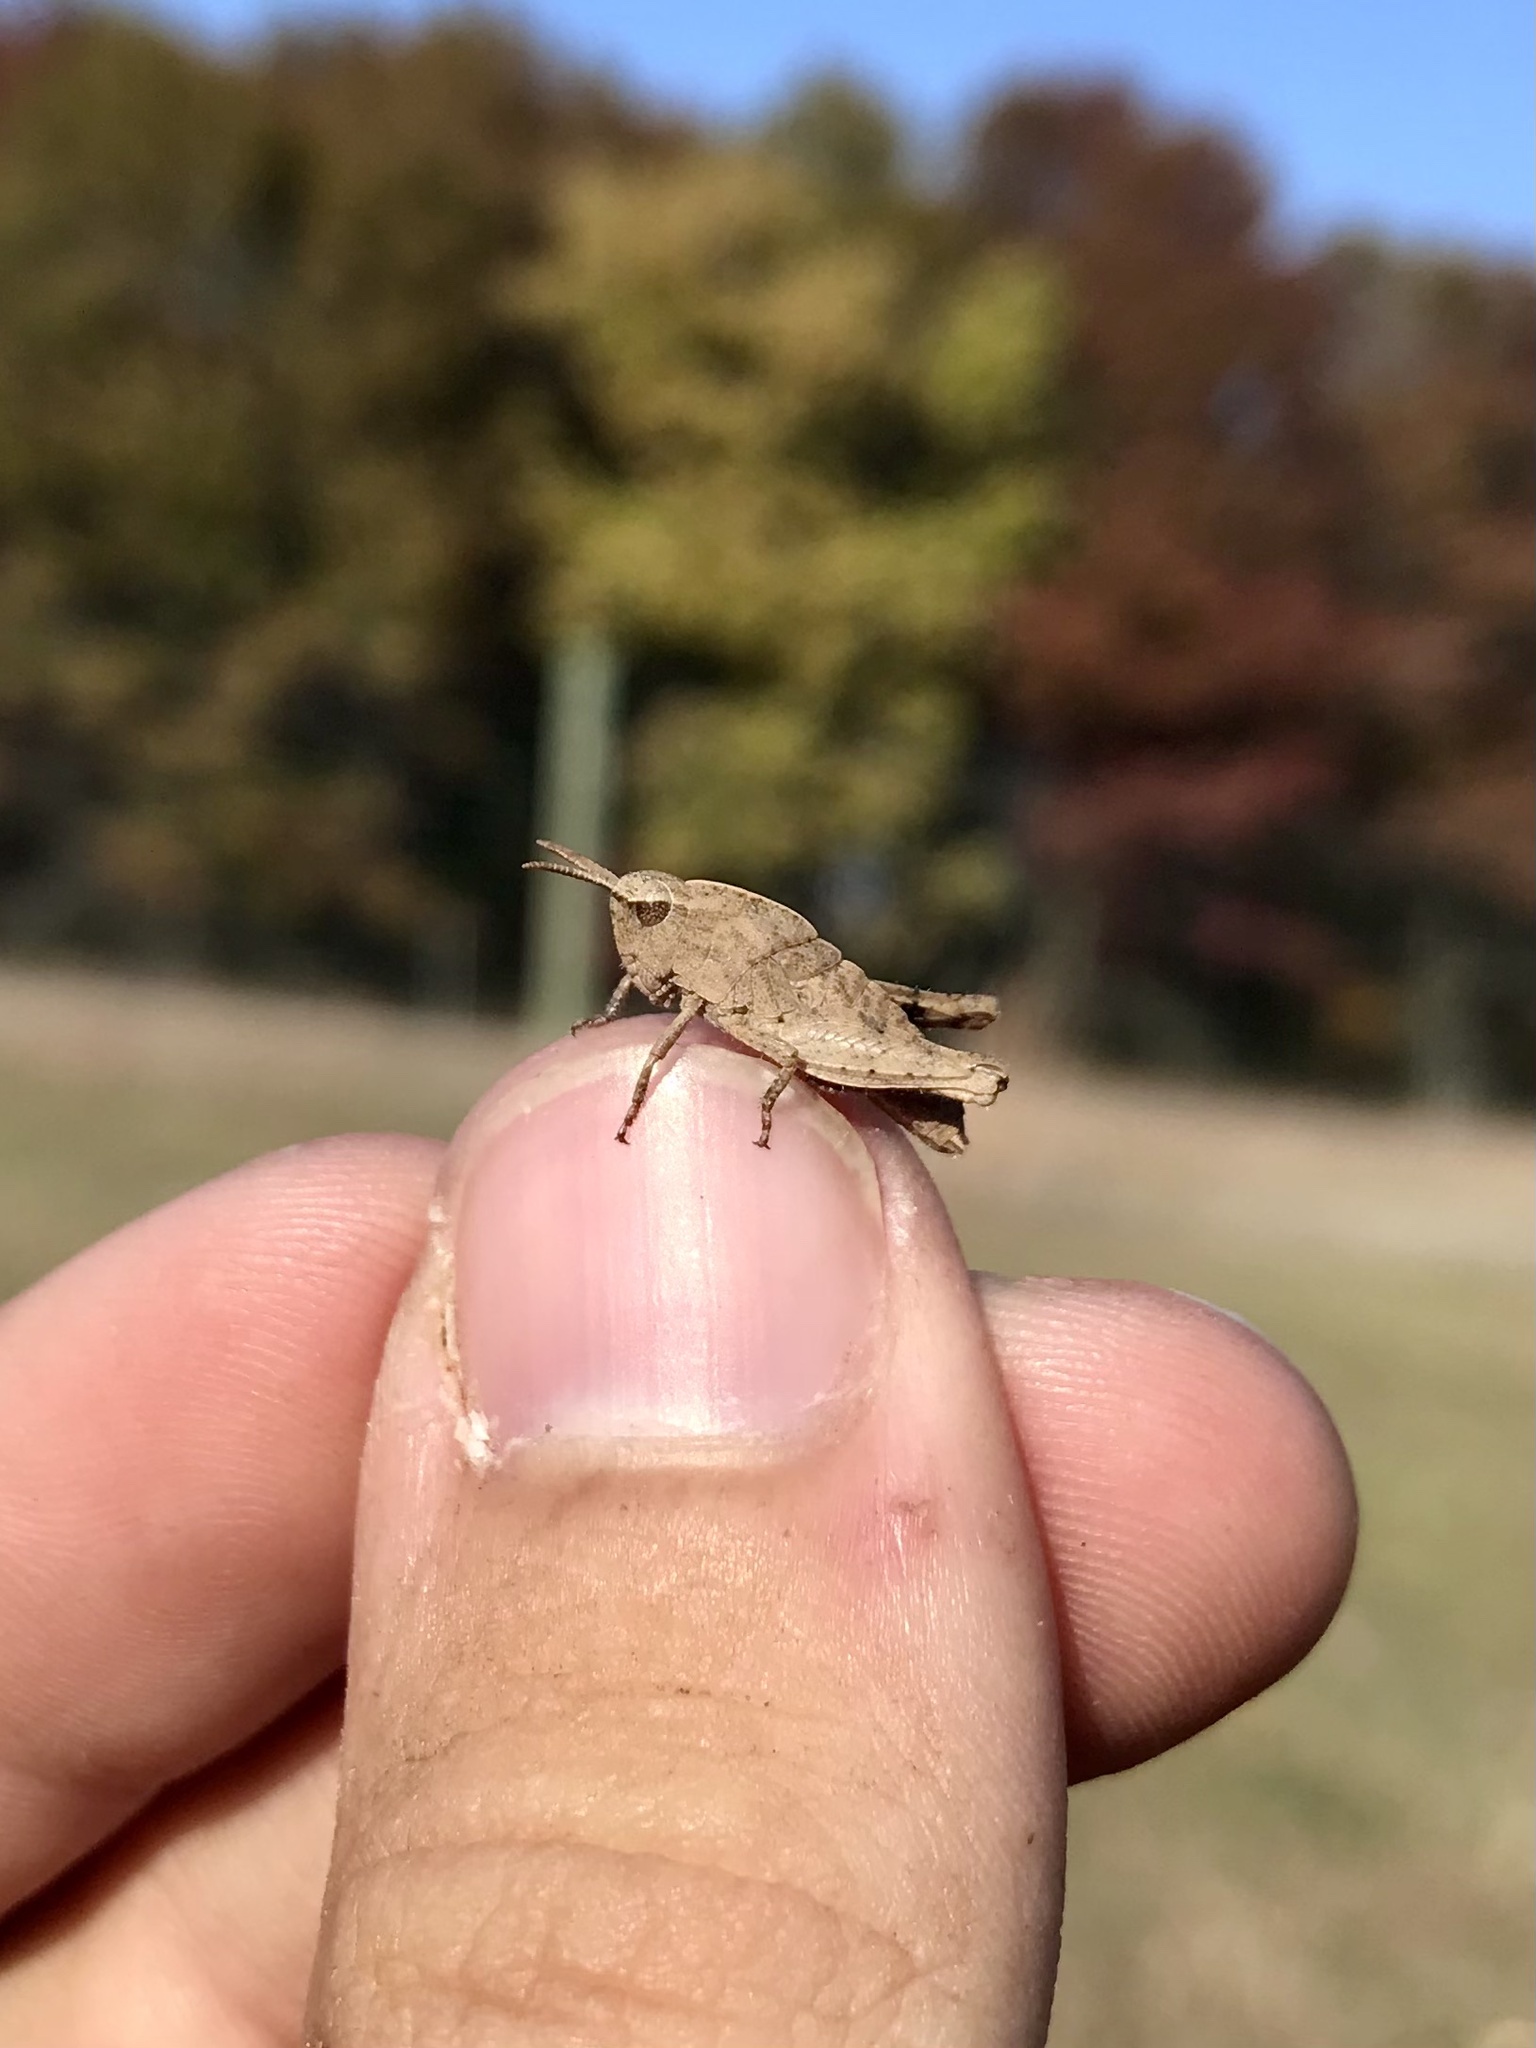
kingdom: Animalia
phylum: Arthropoda
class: Insecta
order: Orthoptera
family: Acrididae
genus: Chortophaga
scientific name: Chortophaga viridifasciata
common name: Green-striped grasshopper
